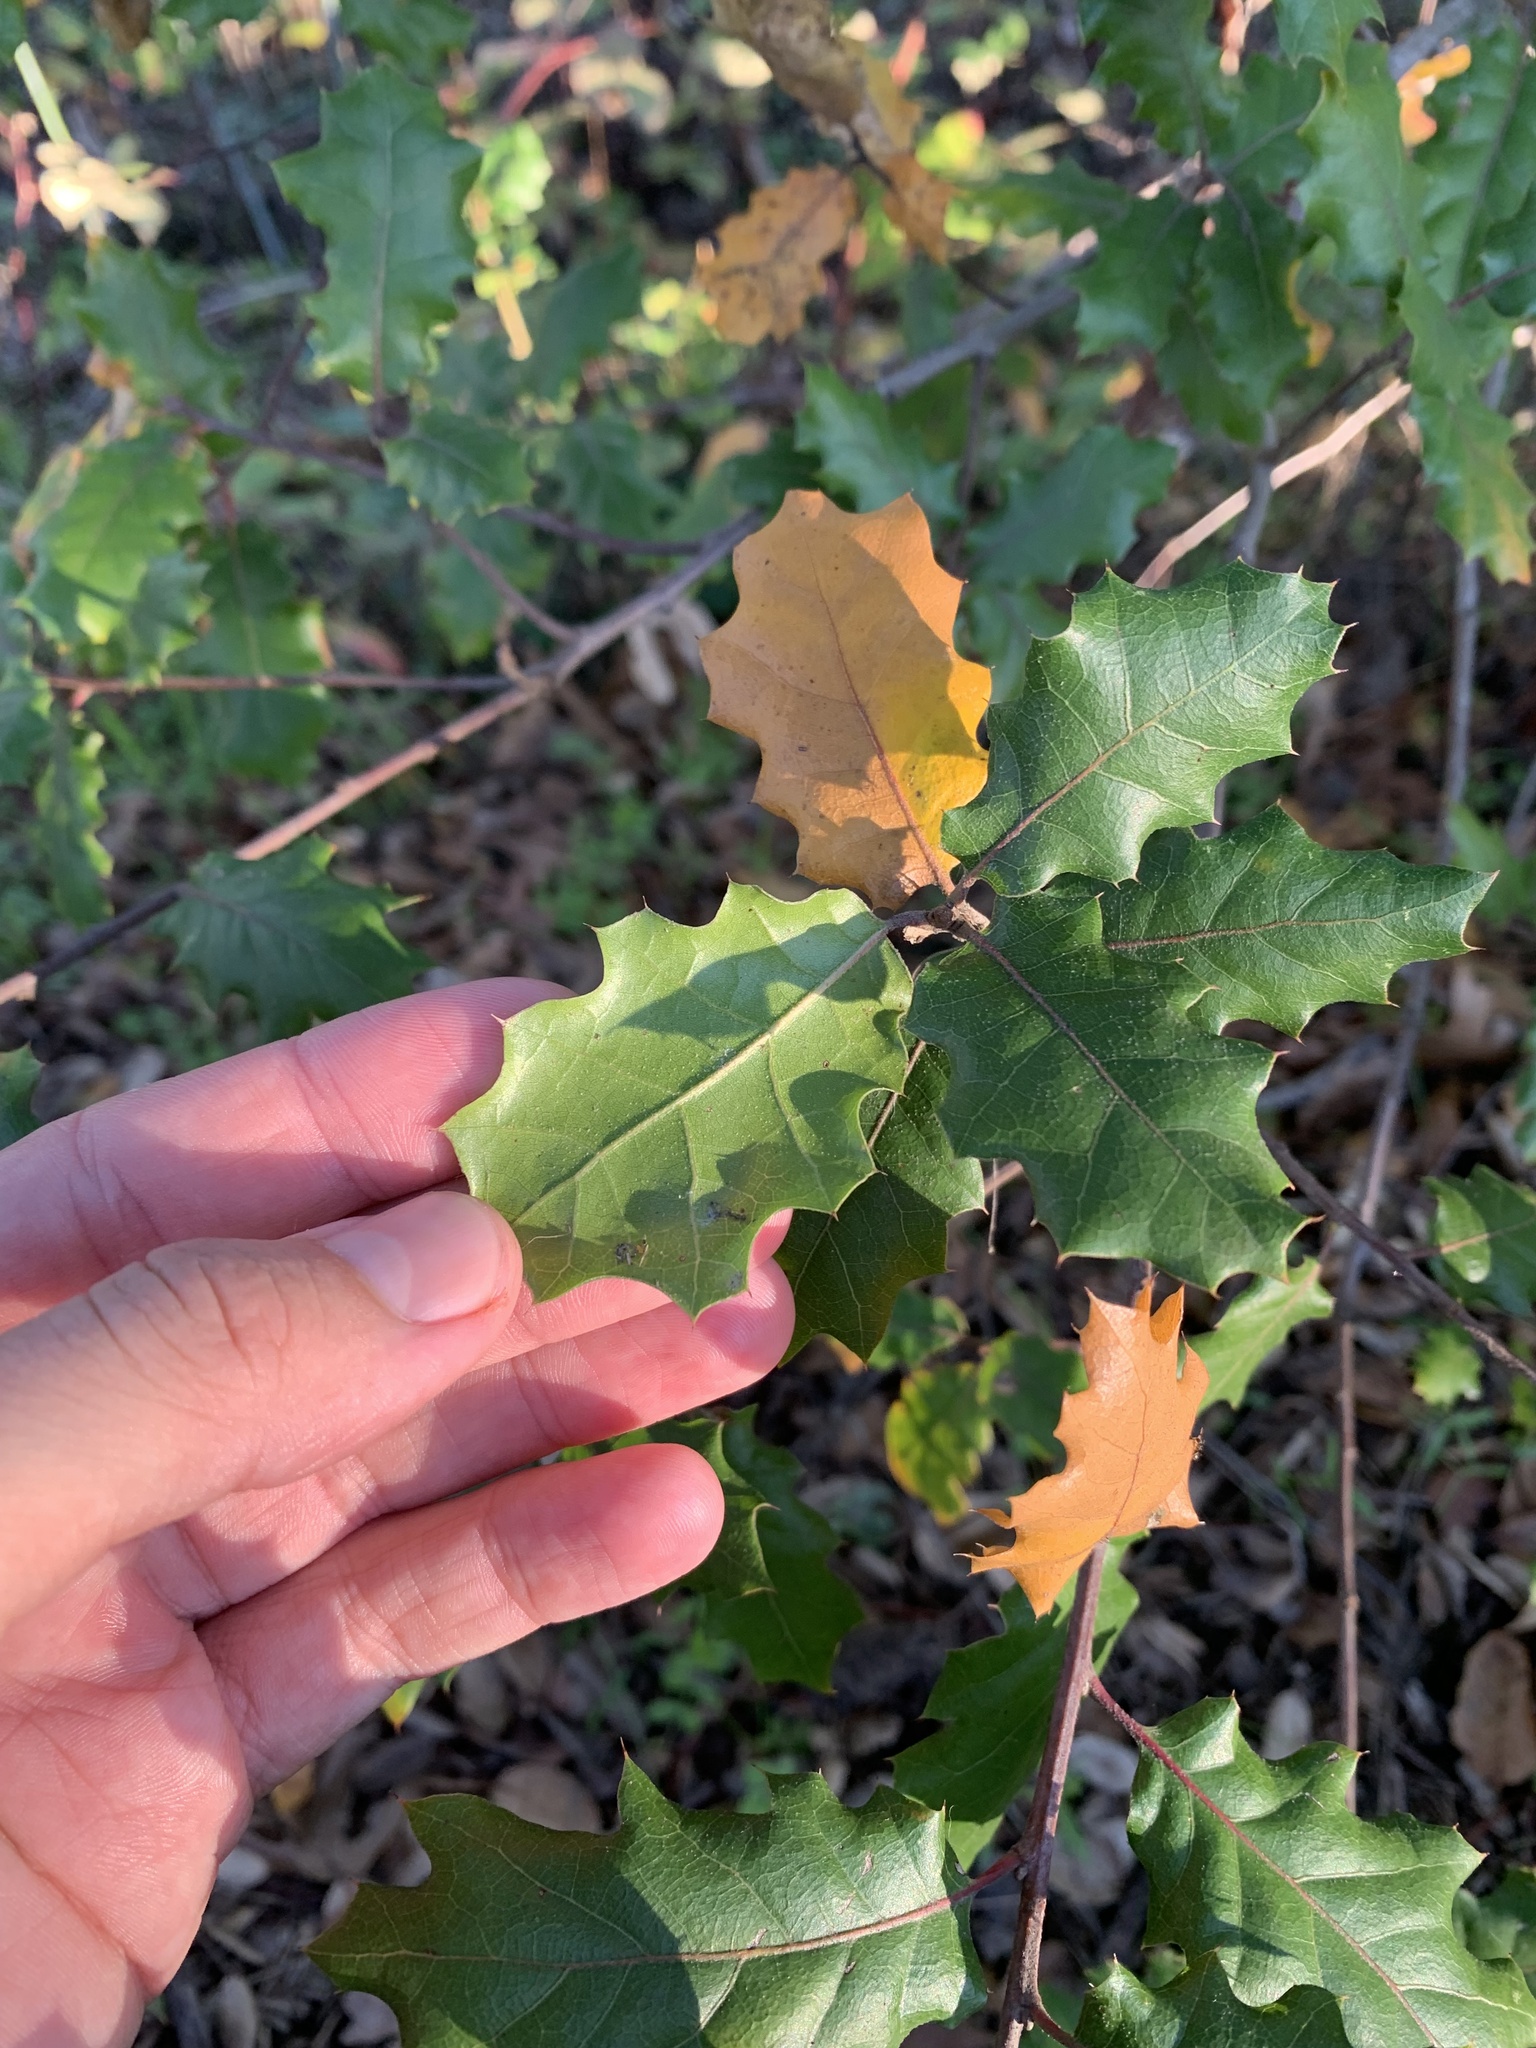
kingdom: Plantae
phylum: Tracheophyta
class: Magnoliopsida
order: Fagales
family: Fagaceae
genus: Quercus
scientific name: Quercus morehus
